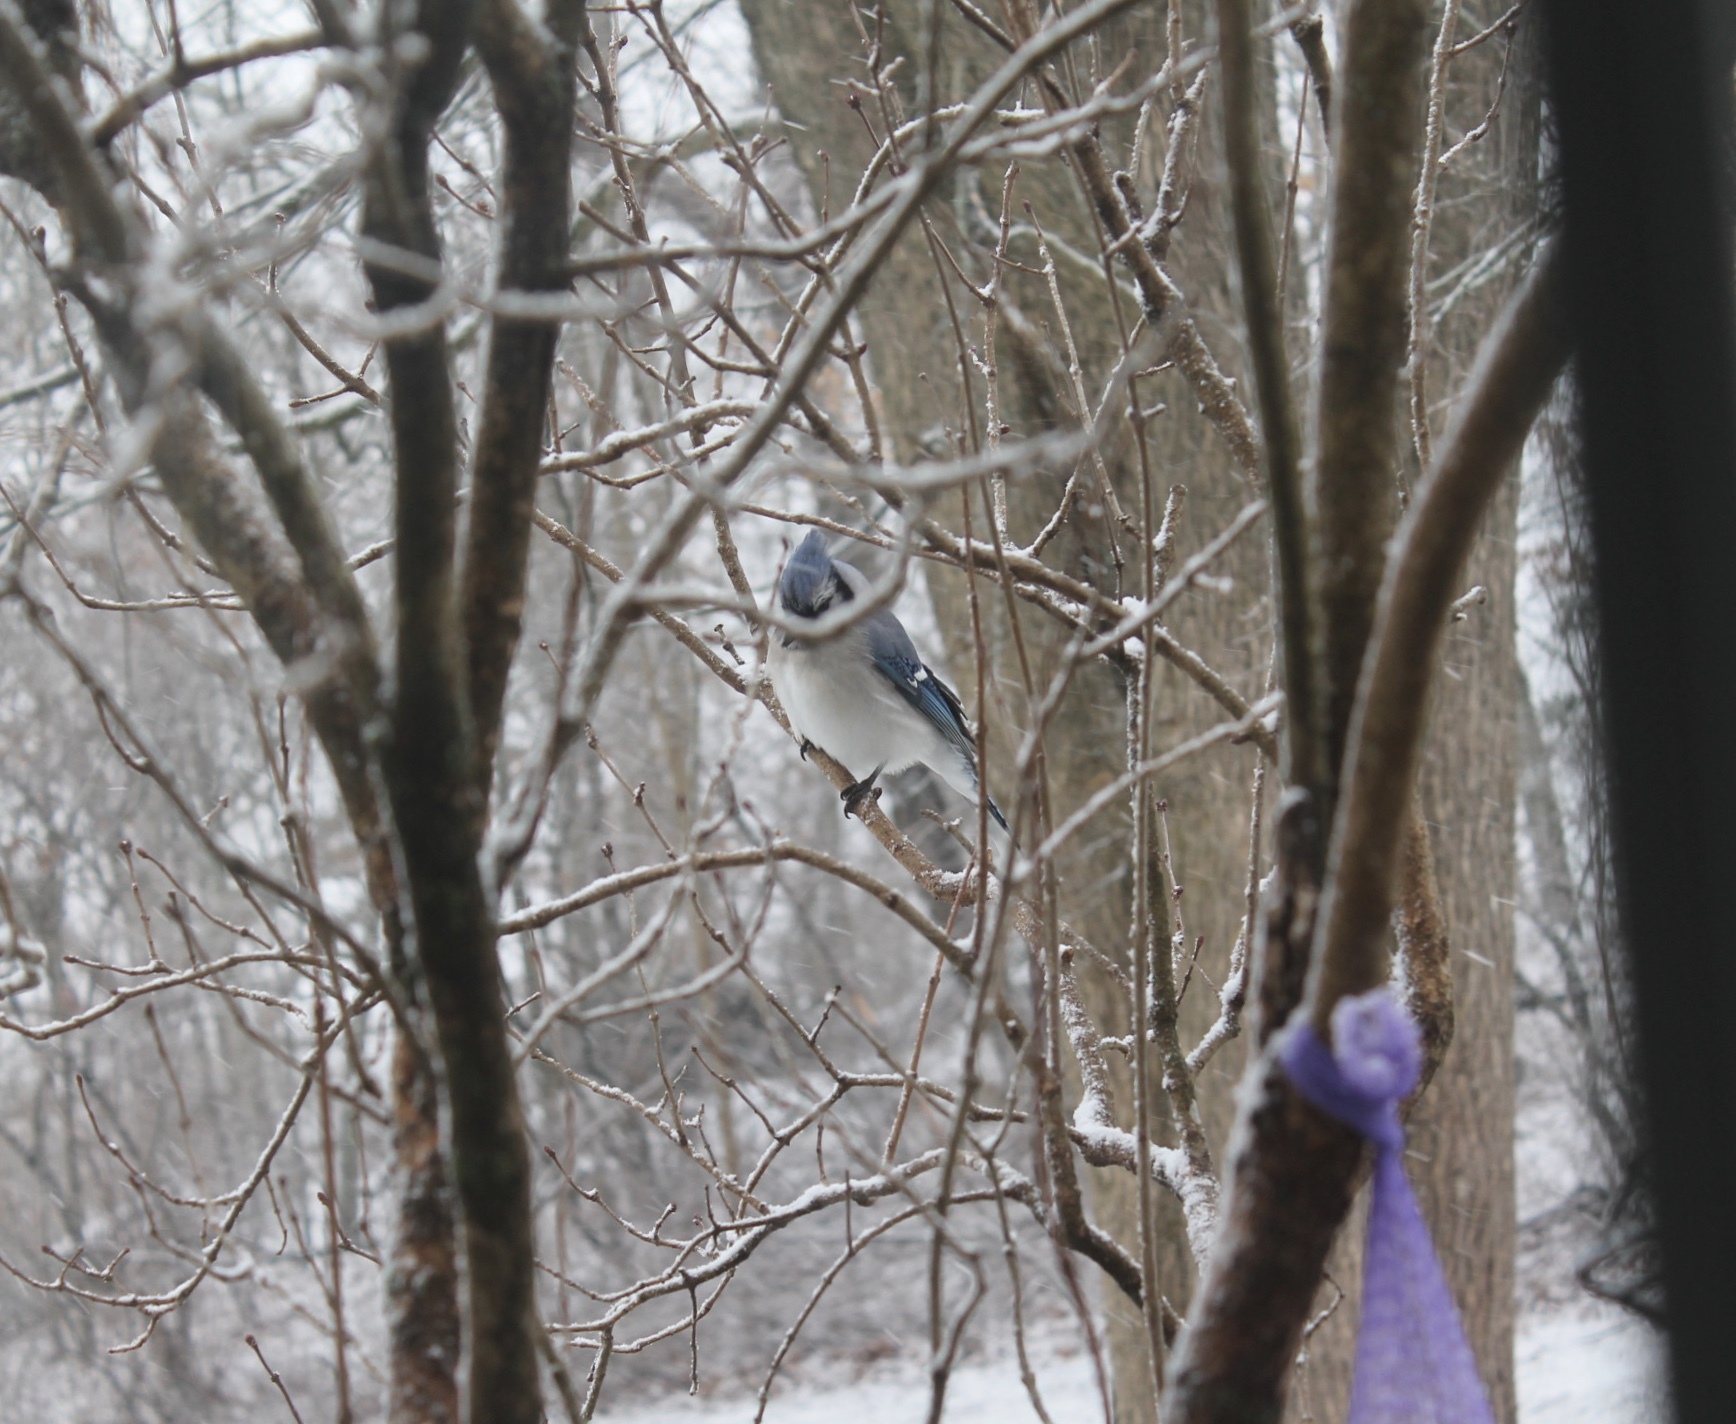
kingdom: Animalia
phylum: Chordata
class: Aves
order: Passeriformes
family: Corvidae
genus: Cyanocitta
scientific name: Cyanocitta cristata
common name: Blue jay
